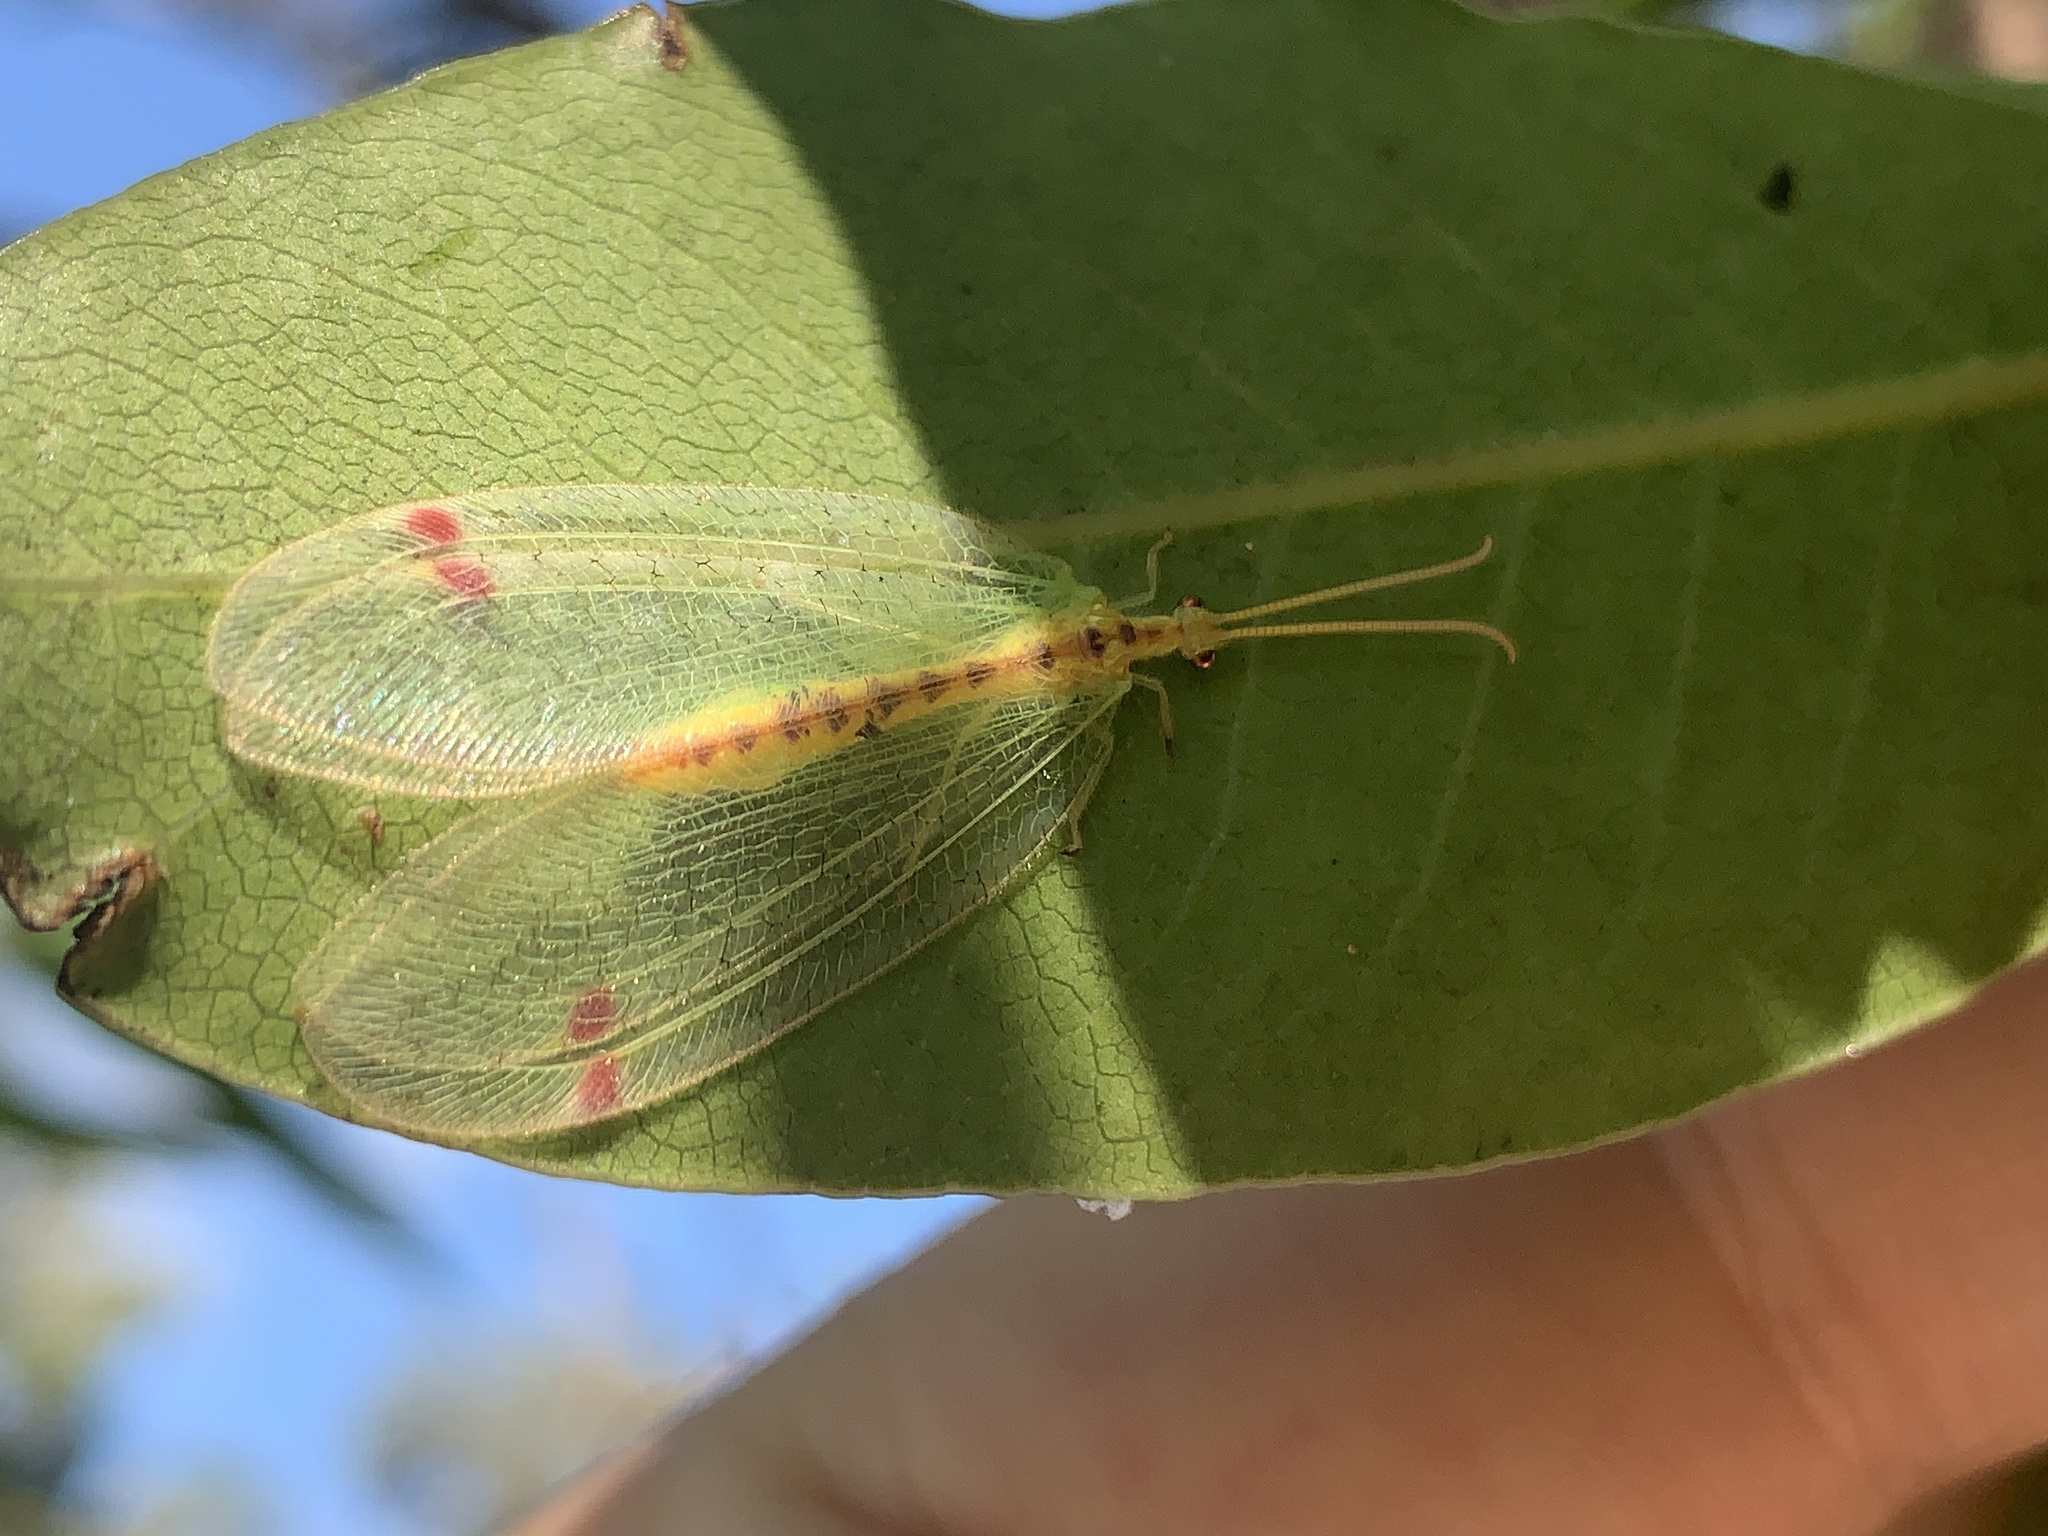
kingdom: Animalia
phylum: Arthropoda
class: Insecta
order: Neuroptera
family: Nymphidae
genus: Norfolius
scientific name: Norfolius howensis
